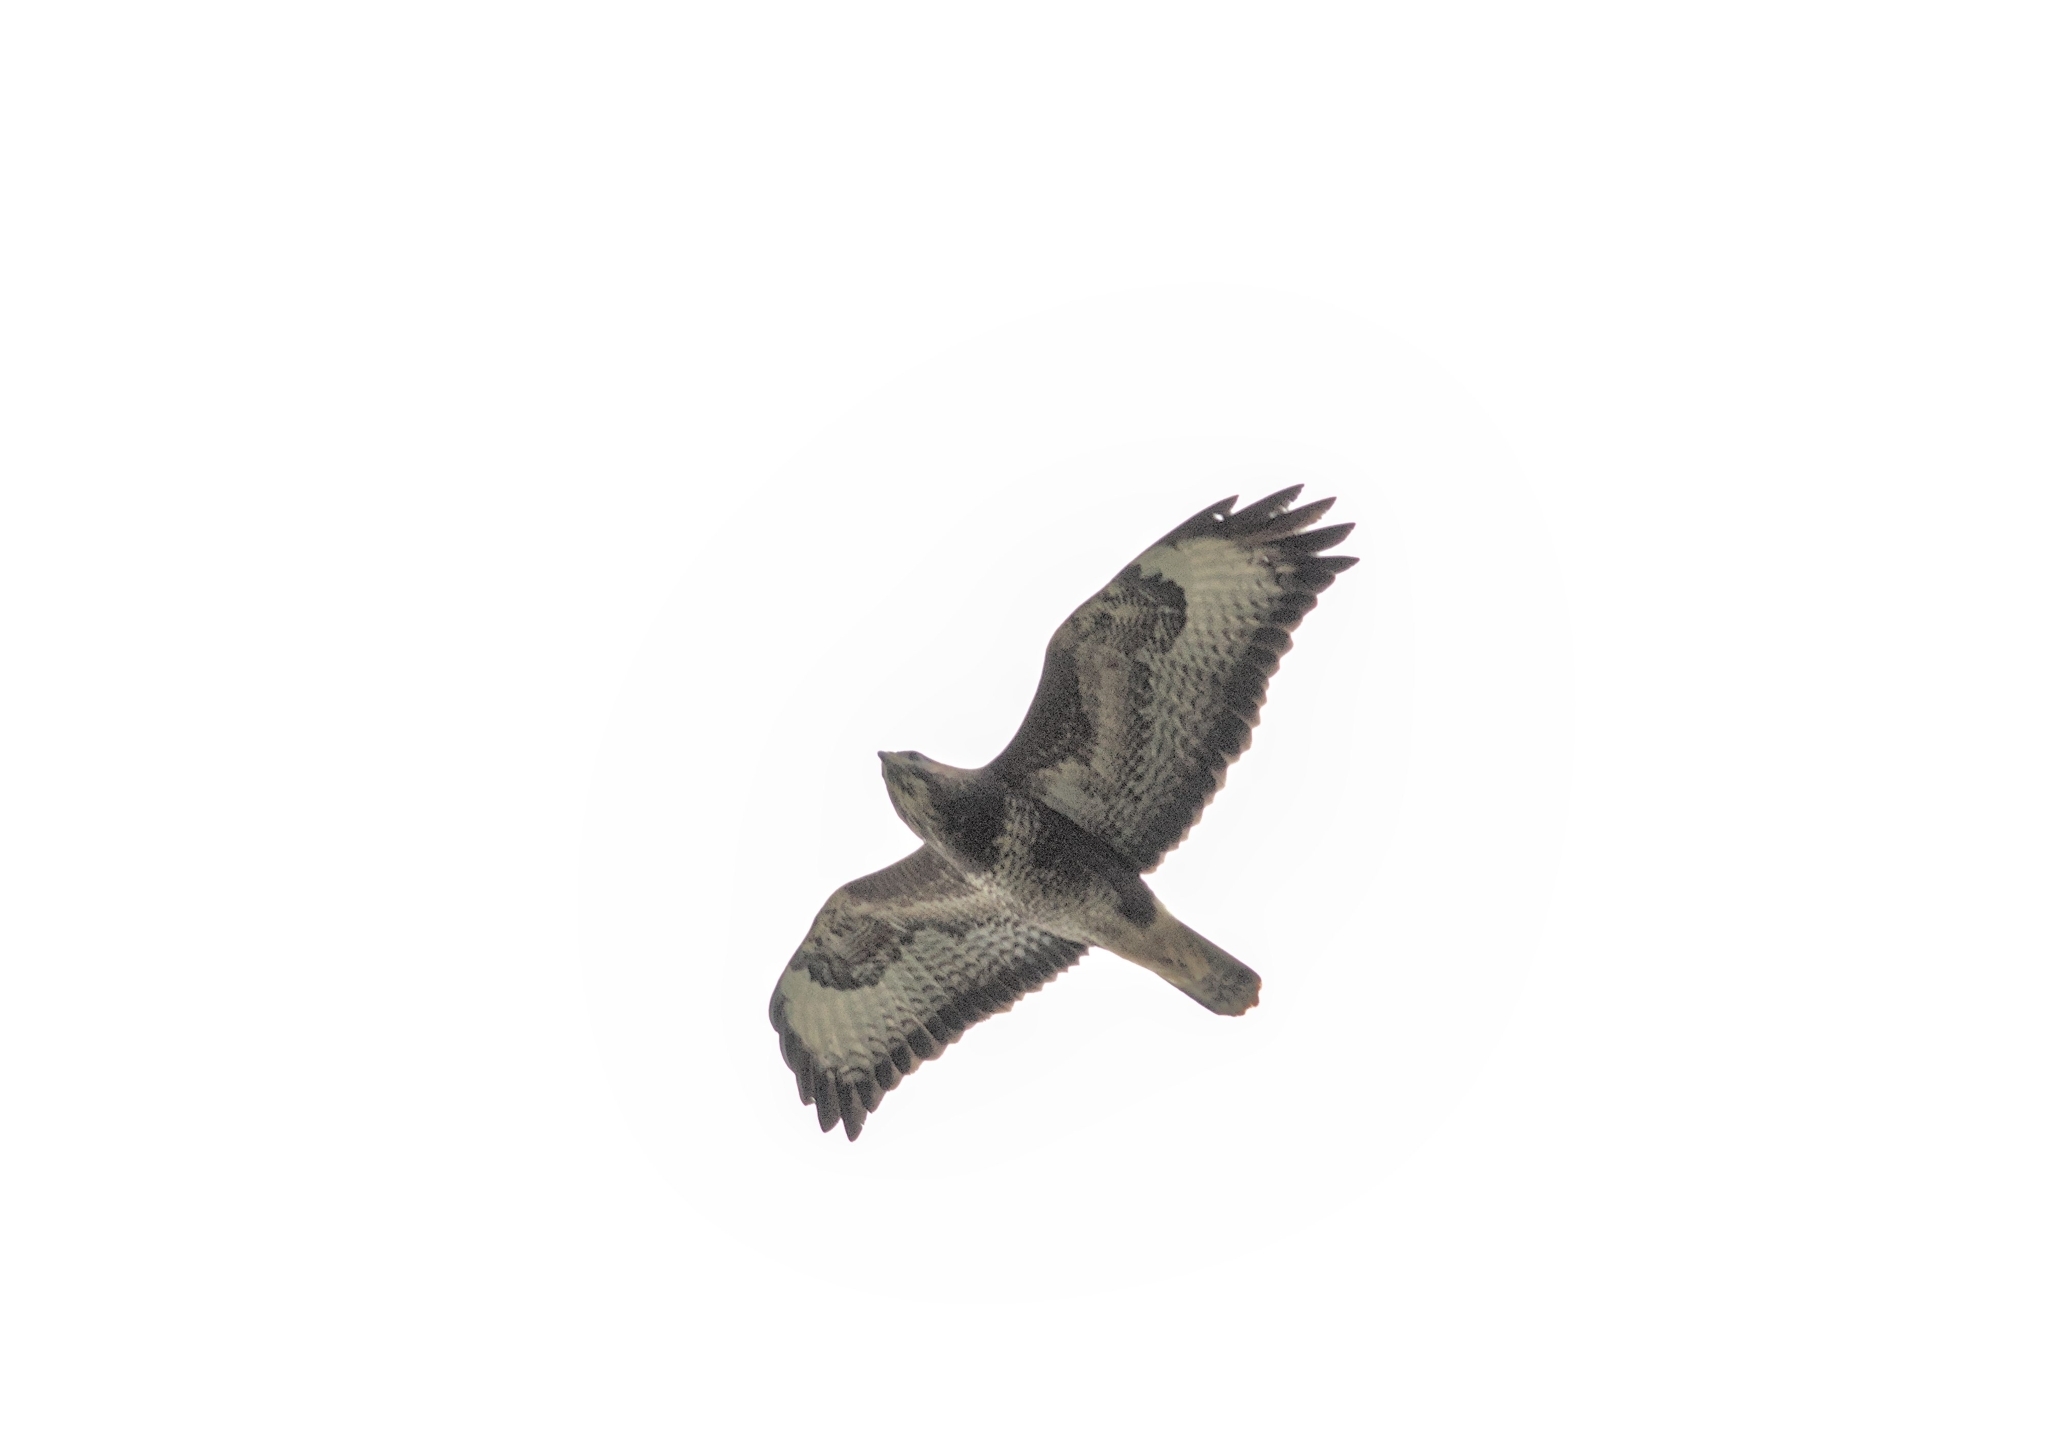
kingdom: Animalia
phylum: Chordata
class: Aves
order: Accipitriformes
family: Accipitridae
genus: Buteo
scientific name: Buteo buteo
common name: Common buzzard
